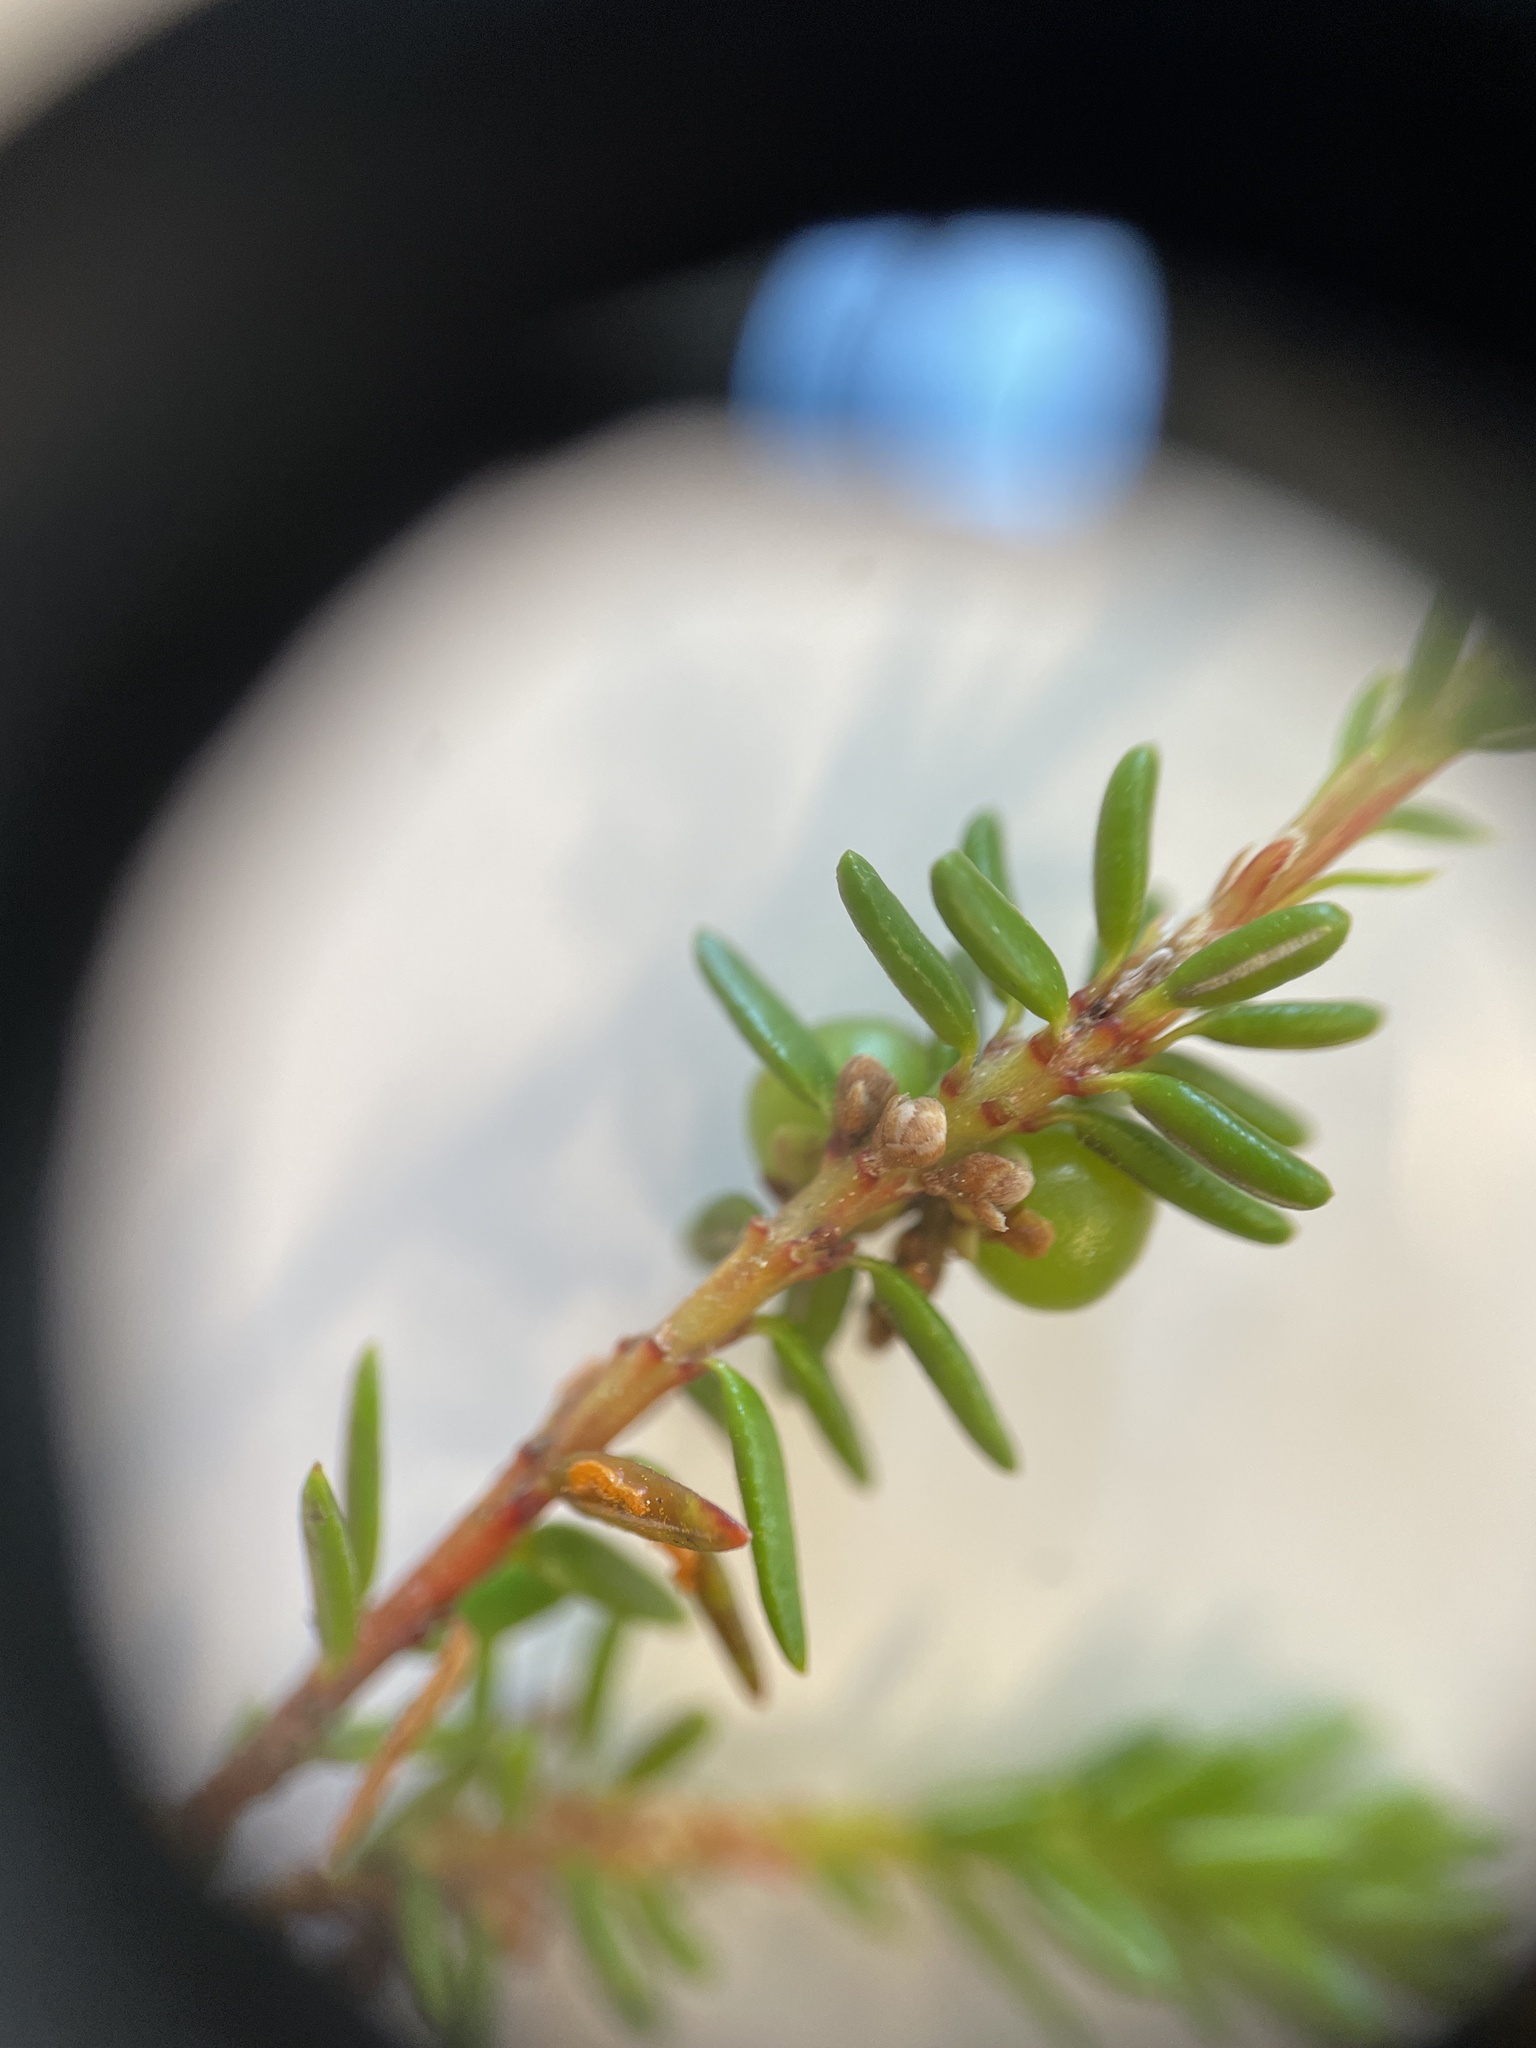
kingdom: Plantae
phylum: Tracheophyta
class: Magnoliopsida
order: Ericales
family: Ericaceae
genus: Empetrum
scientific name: Empetrum nigrum
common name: Black crowberry
